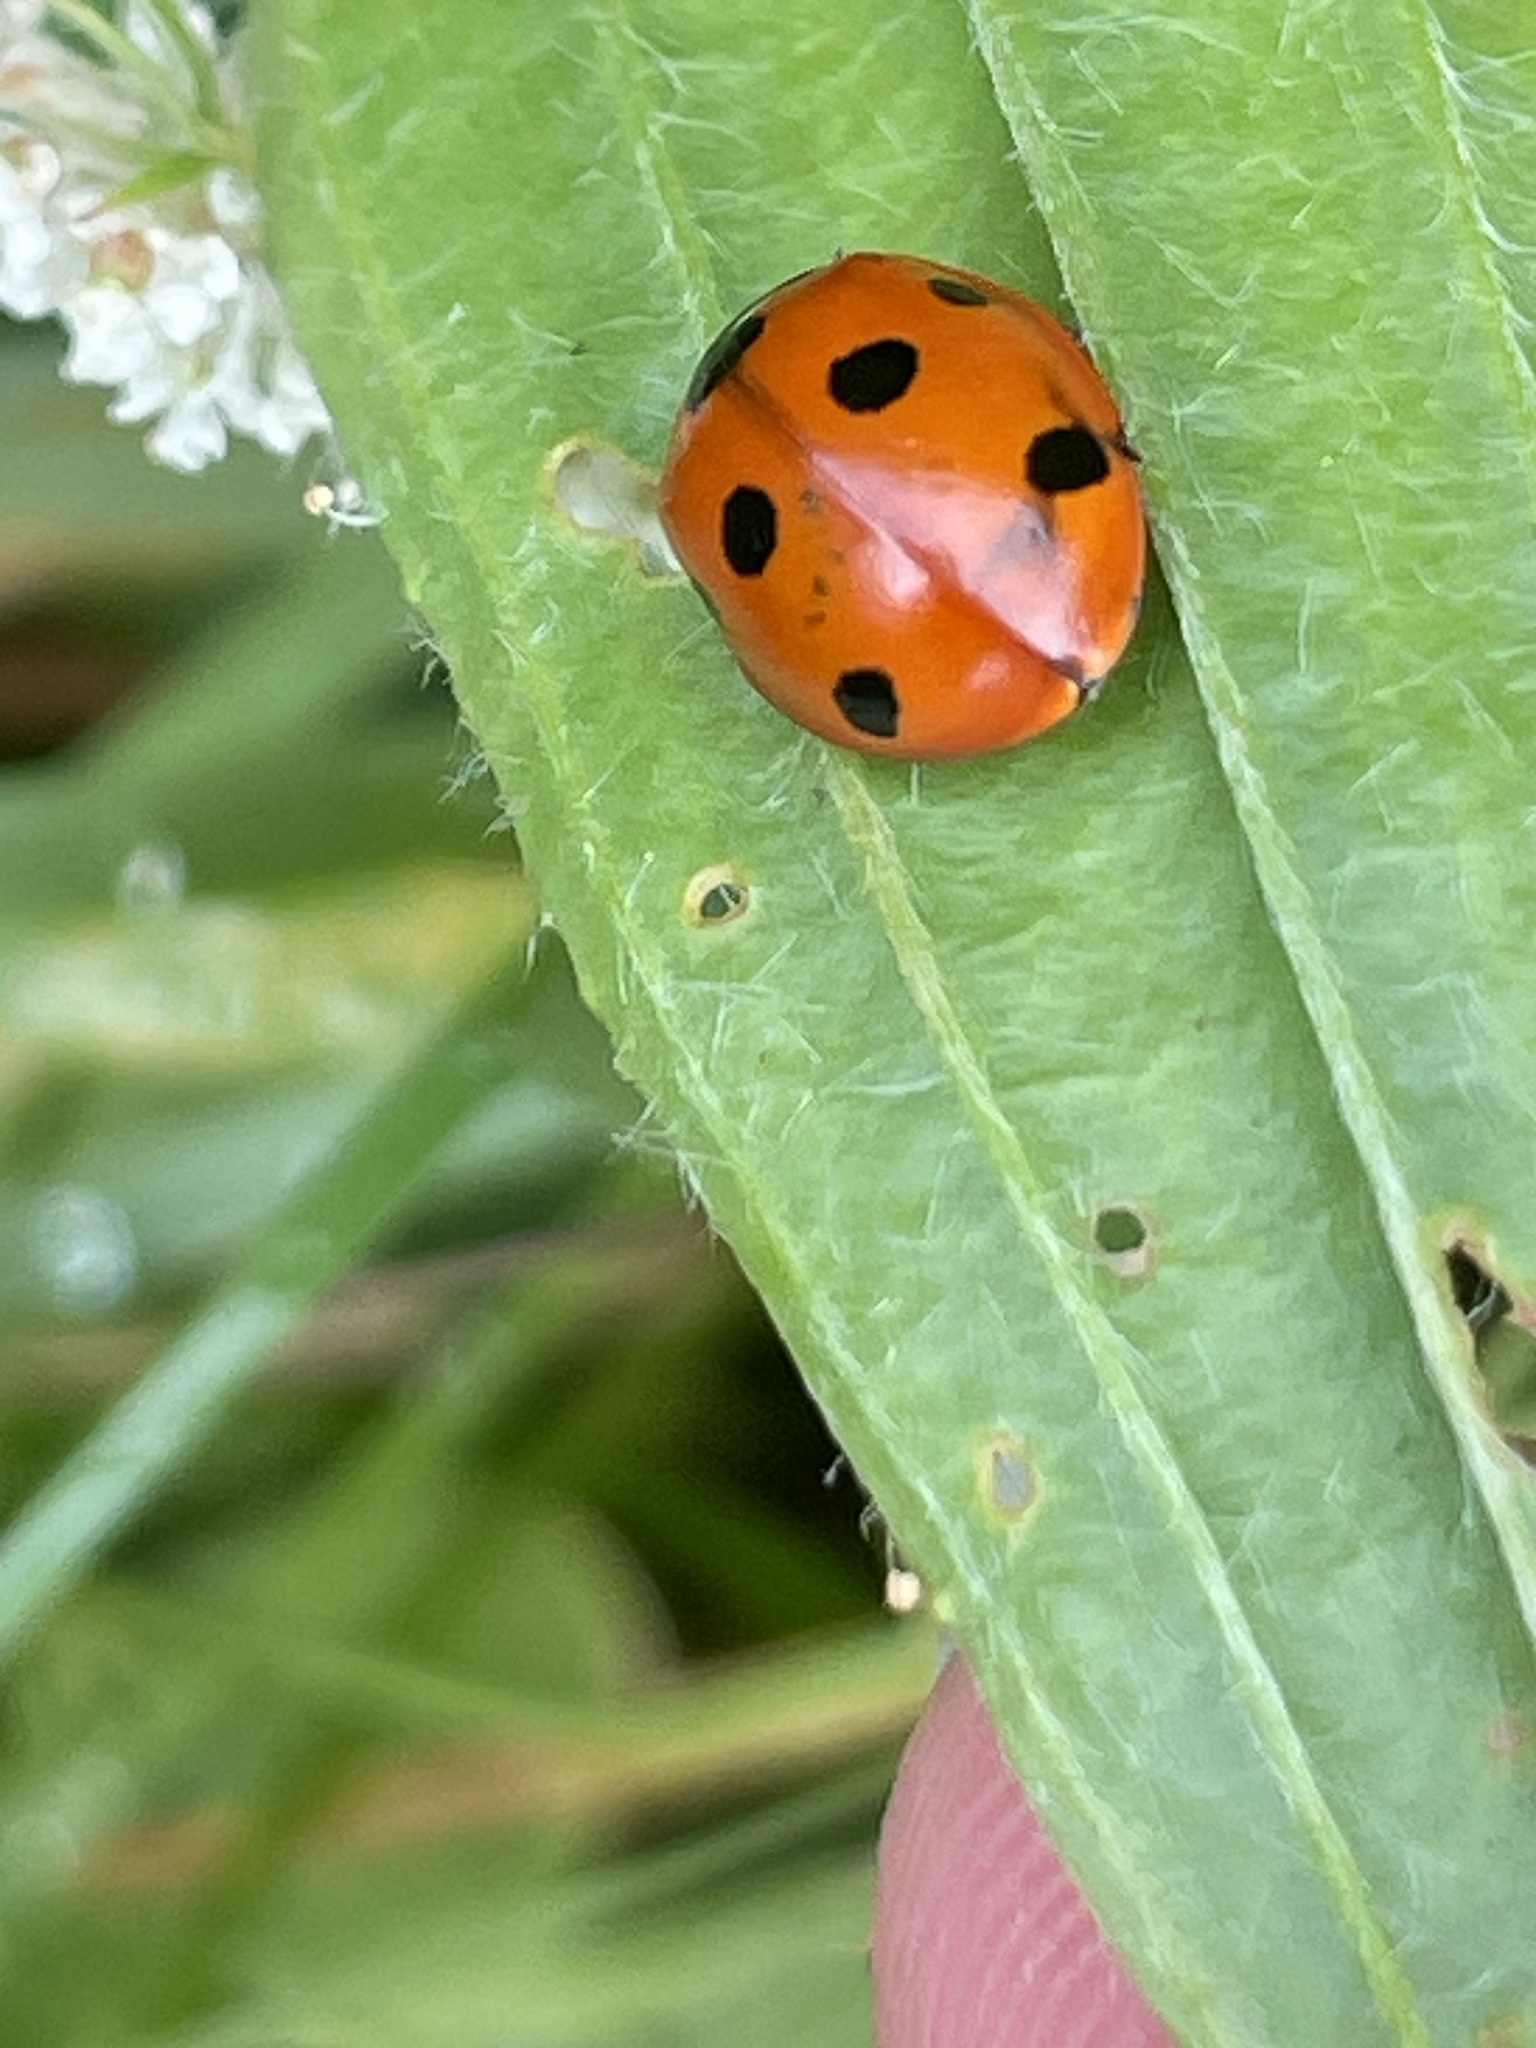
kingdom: Animalia
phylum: Arthropoda
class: Insecta
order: Coleoptera
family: Coccinellidae
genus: Coccinella
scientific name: Coccinella septempunctata
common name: Sevenspotted lady beetle
